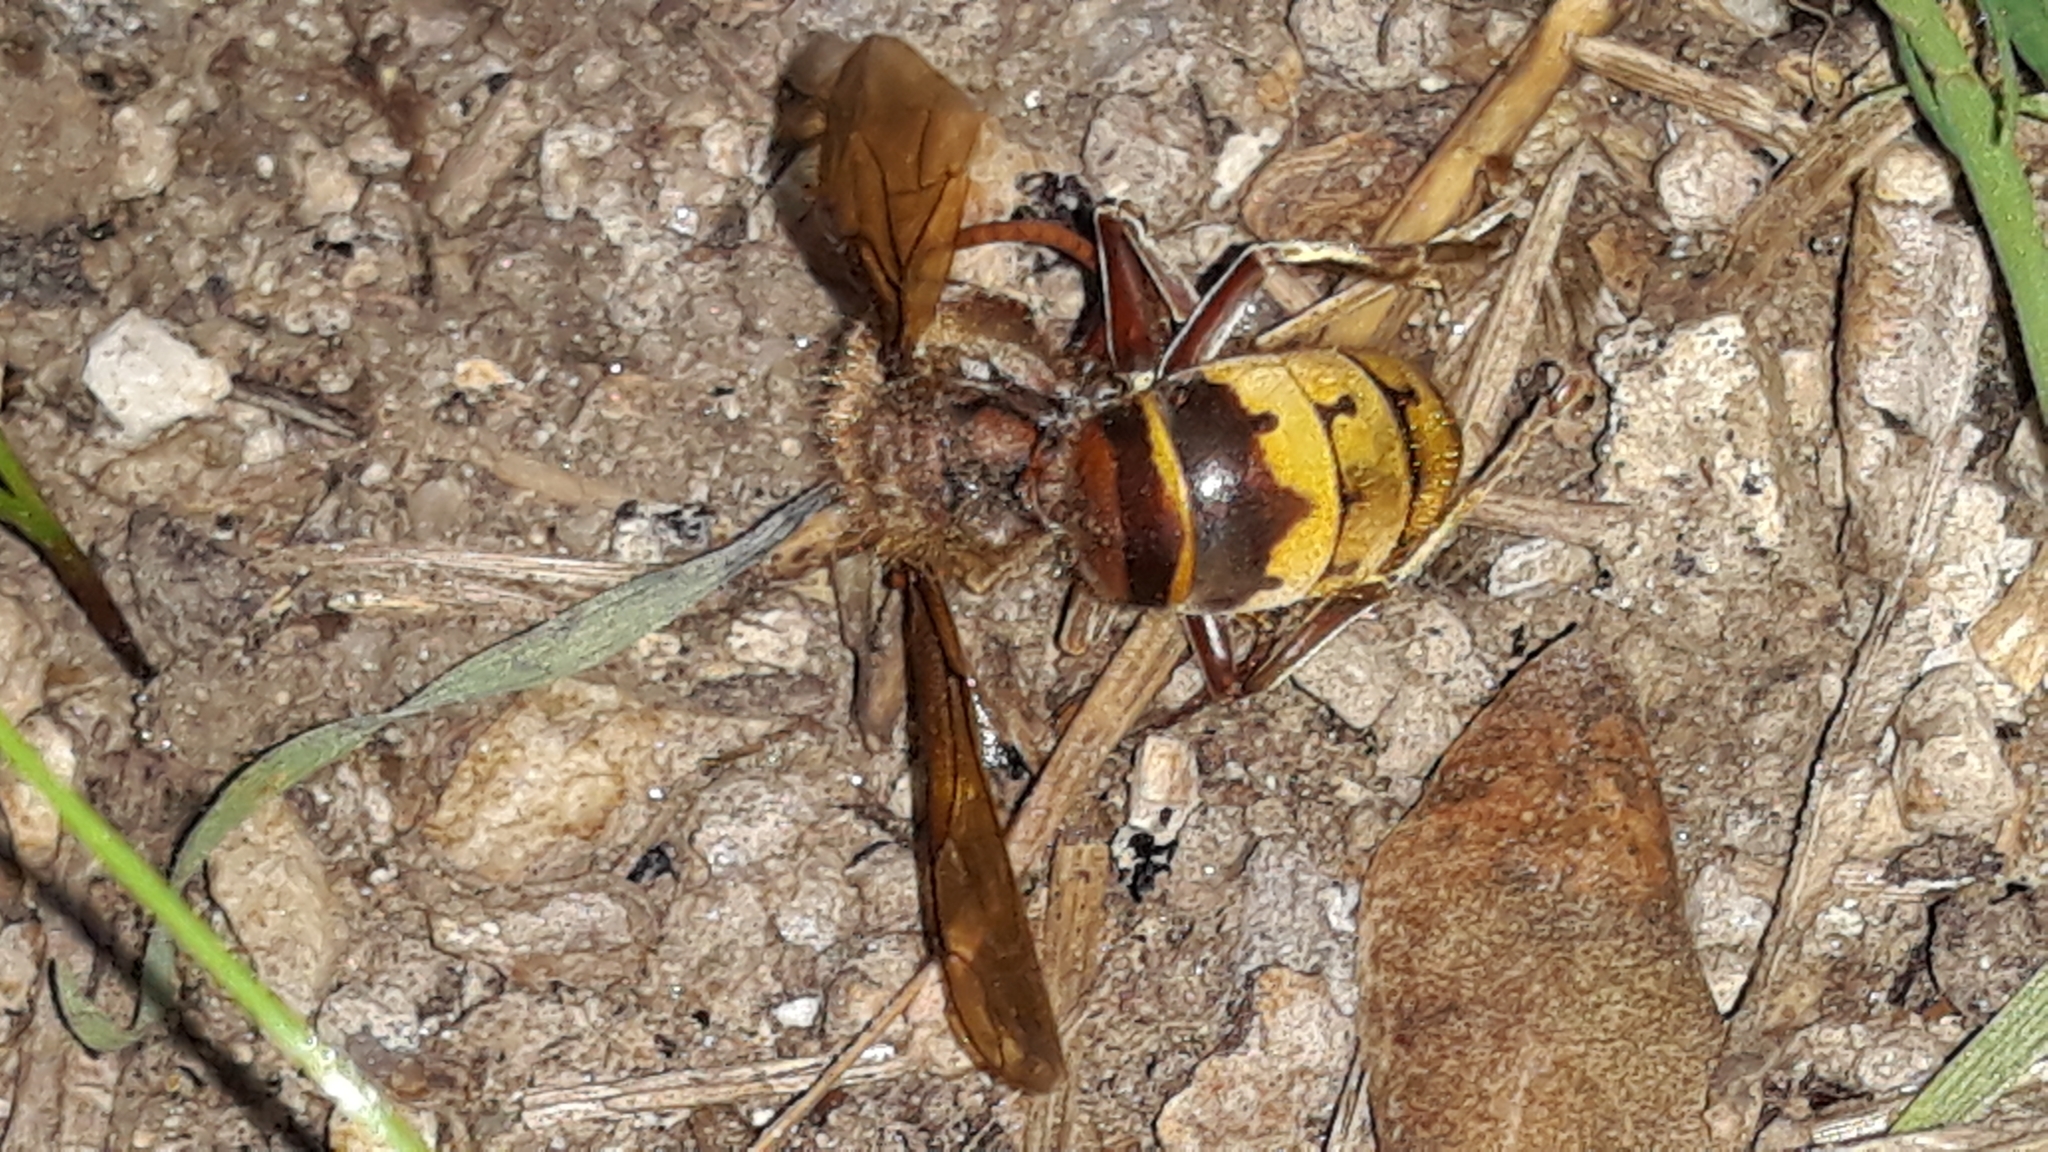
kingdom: Animalia
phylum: Arthropoda
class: Insecta
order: Hymenoptera
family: Vespidae
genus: Vespa
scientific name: Vespa crabro
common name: Hornet
